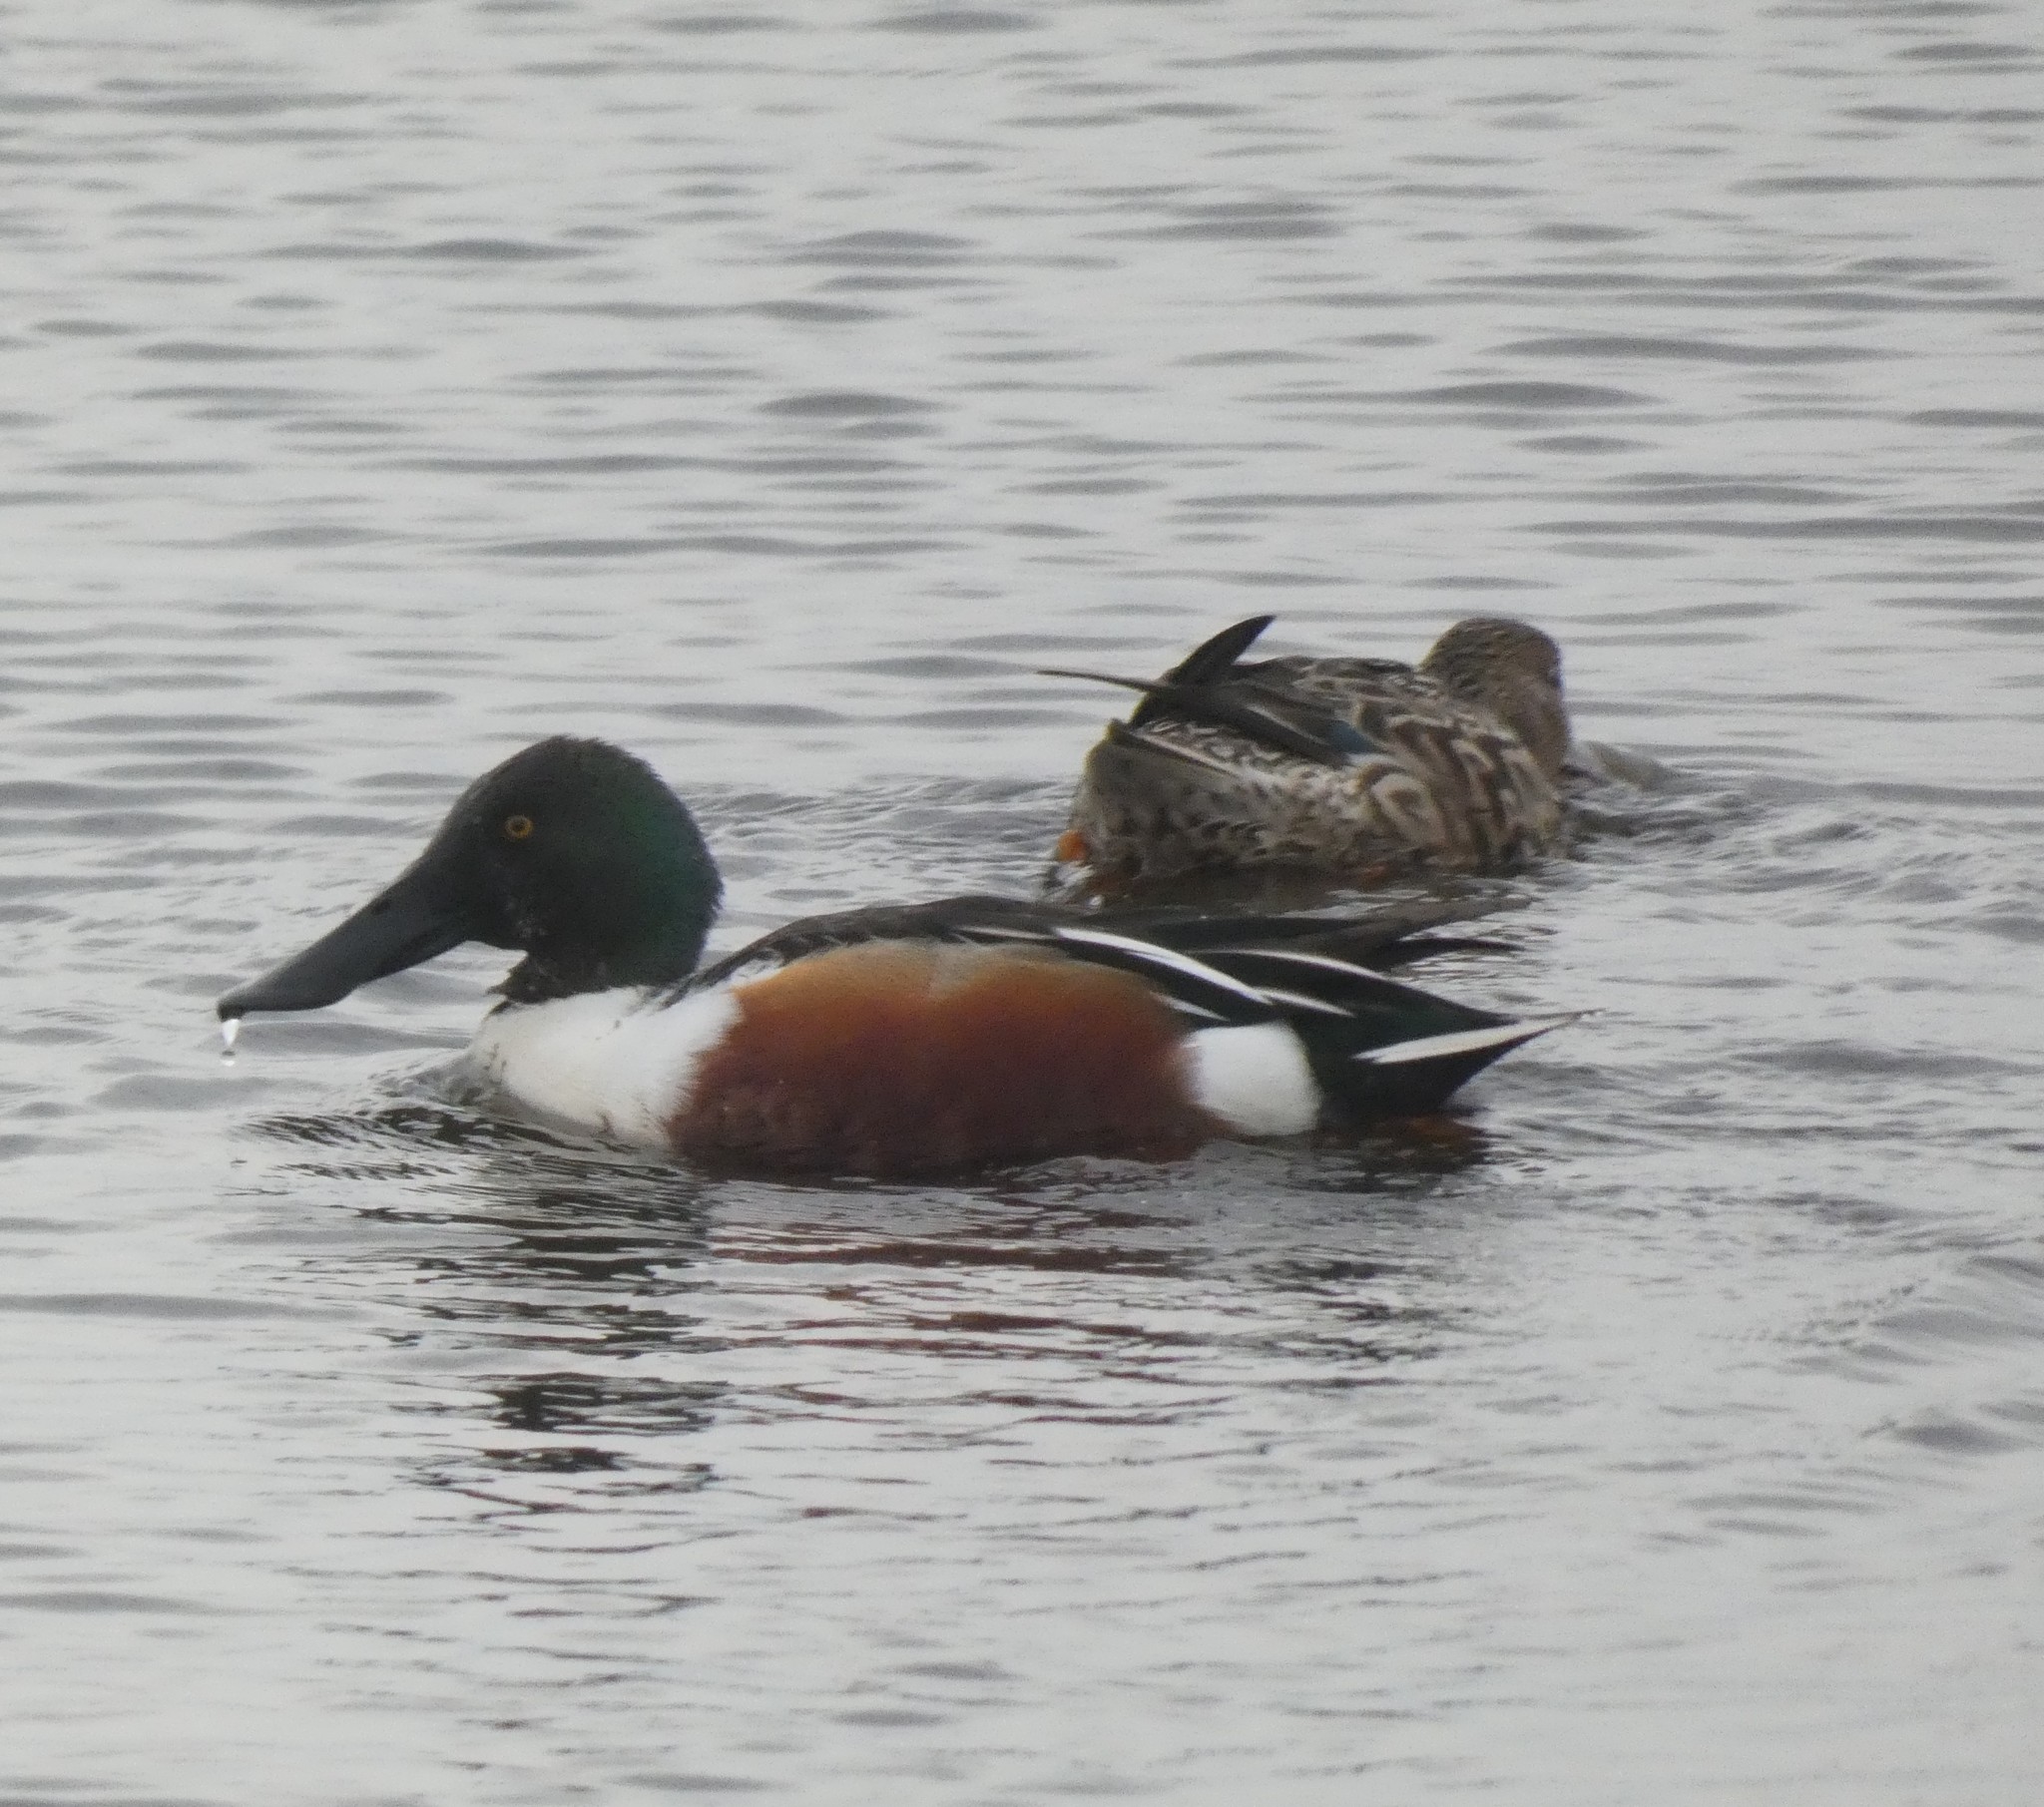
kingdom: Animalia
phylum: Chordata
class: Aves
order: Anseriformes
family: Anatidae
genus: Spatula
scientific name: Spatula clypeata
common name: Northern shoveler
